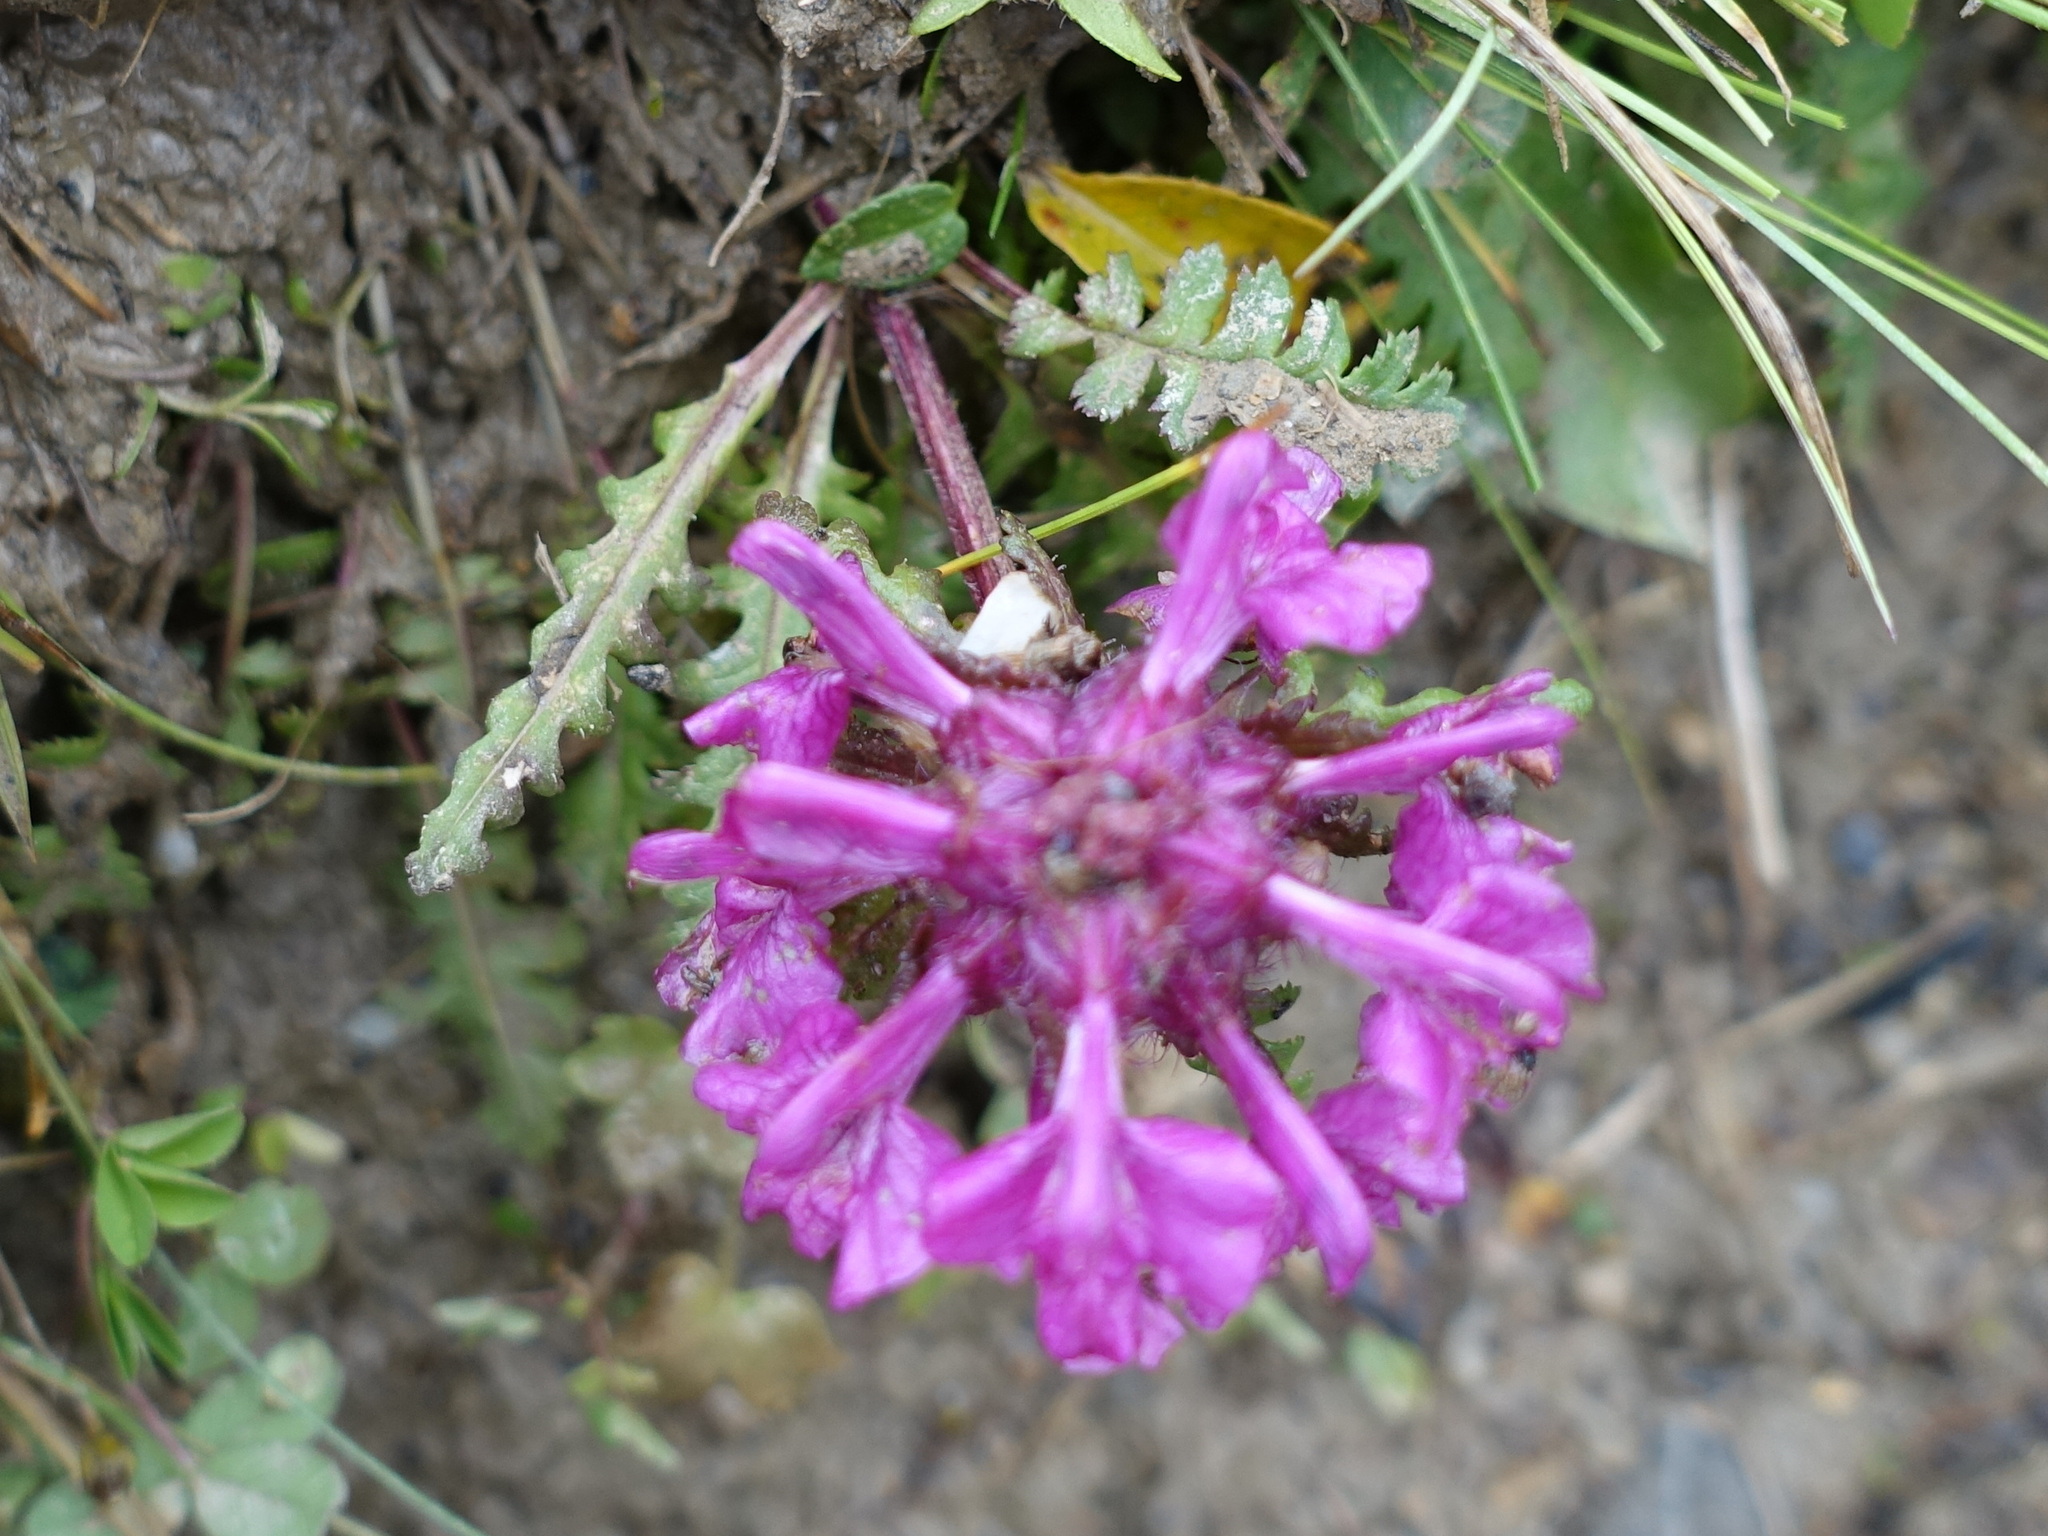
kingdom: Plantae
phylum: Tracheophyta
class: Magnoliopsida
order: Lamiales
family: Orobanchaceae
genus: Pedicularis
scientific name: Pedicularis verticillata
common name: Whorled lousewort
